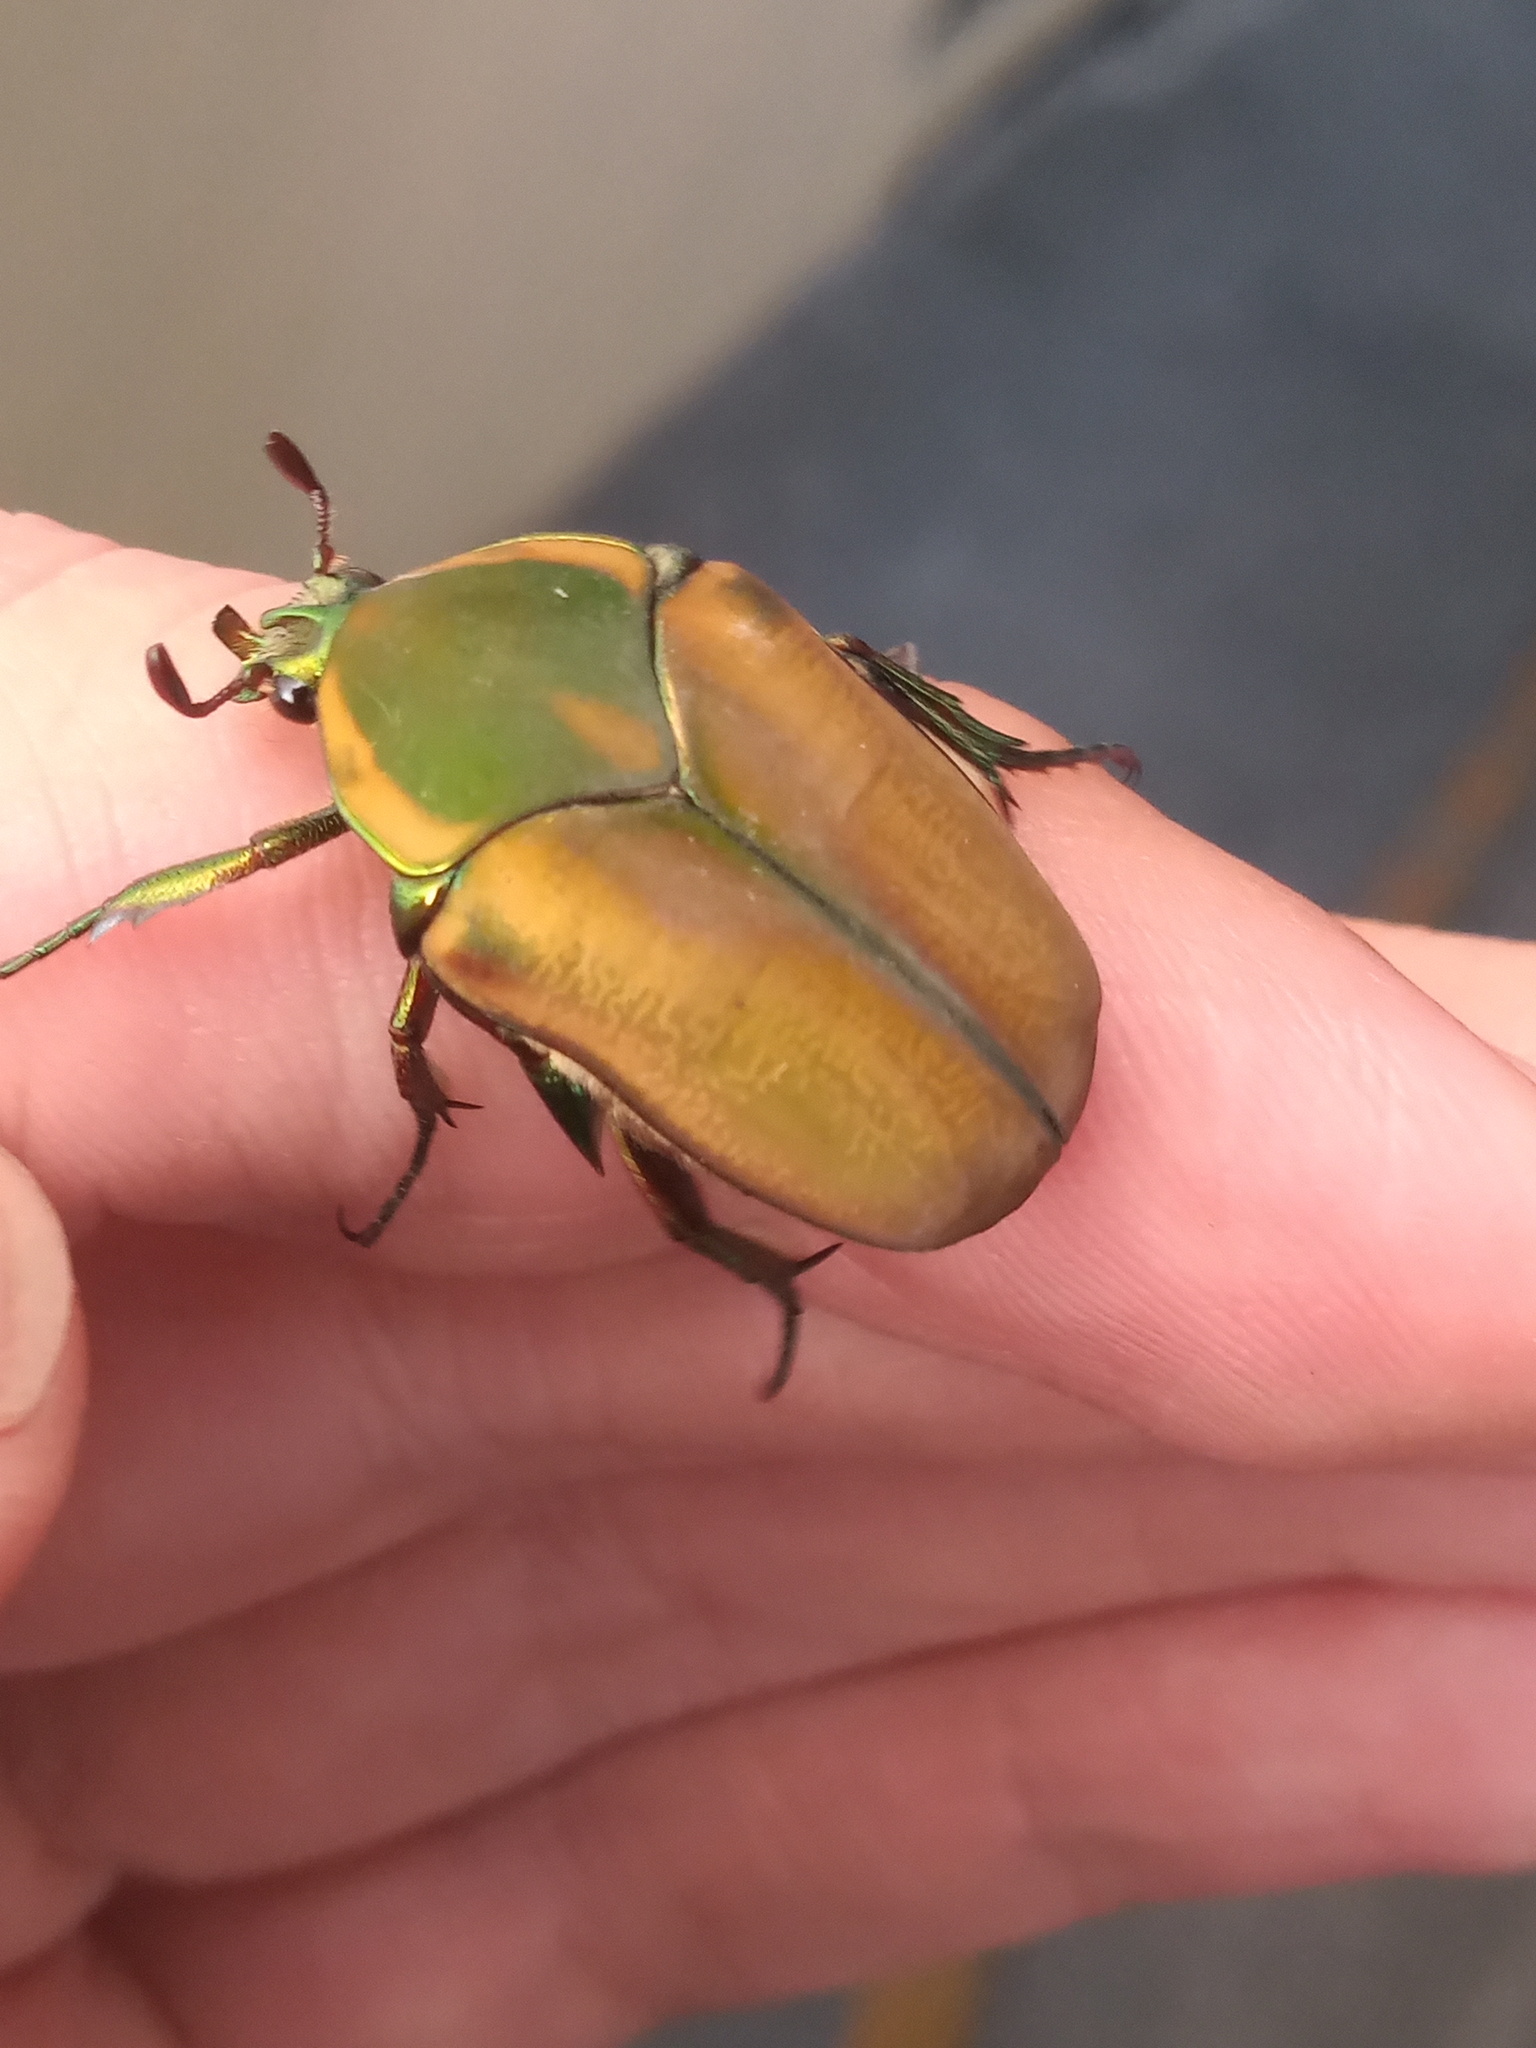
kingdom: Animalia
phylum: Arthropoda
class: Insecta
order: Coleoptera
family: Scarabaeidae
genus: Cotinis
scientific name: Cotinis mutabilis
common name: Figeater beetle
